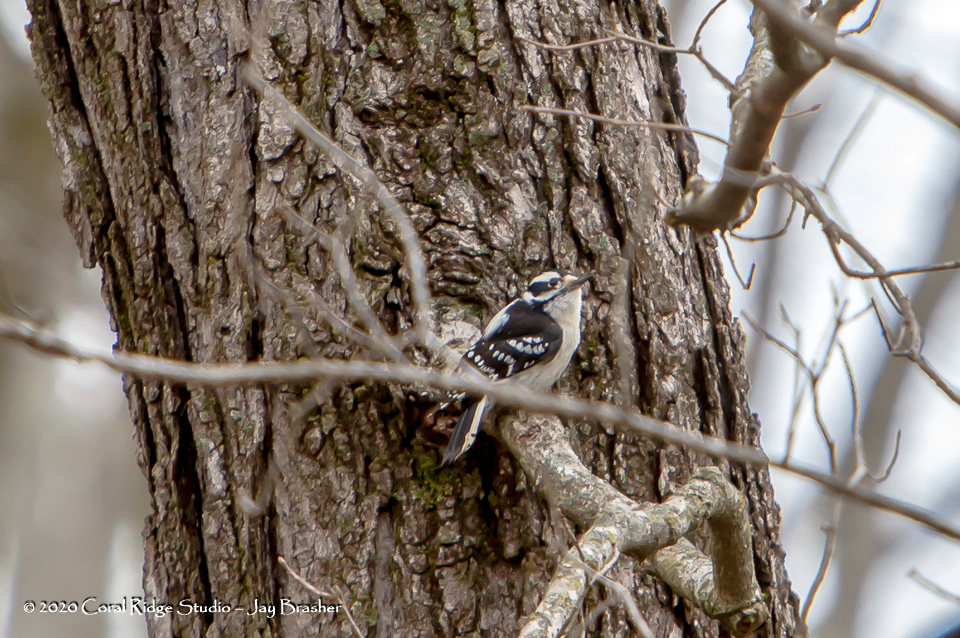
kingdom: Animalia
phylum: Chordata
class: Aves
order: Piciformes
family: Picidae
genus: Dryobates
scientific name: Dryobates pubescens
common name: Downy woodpecker
